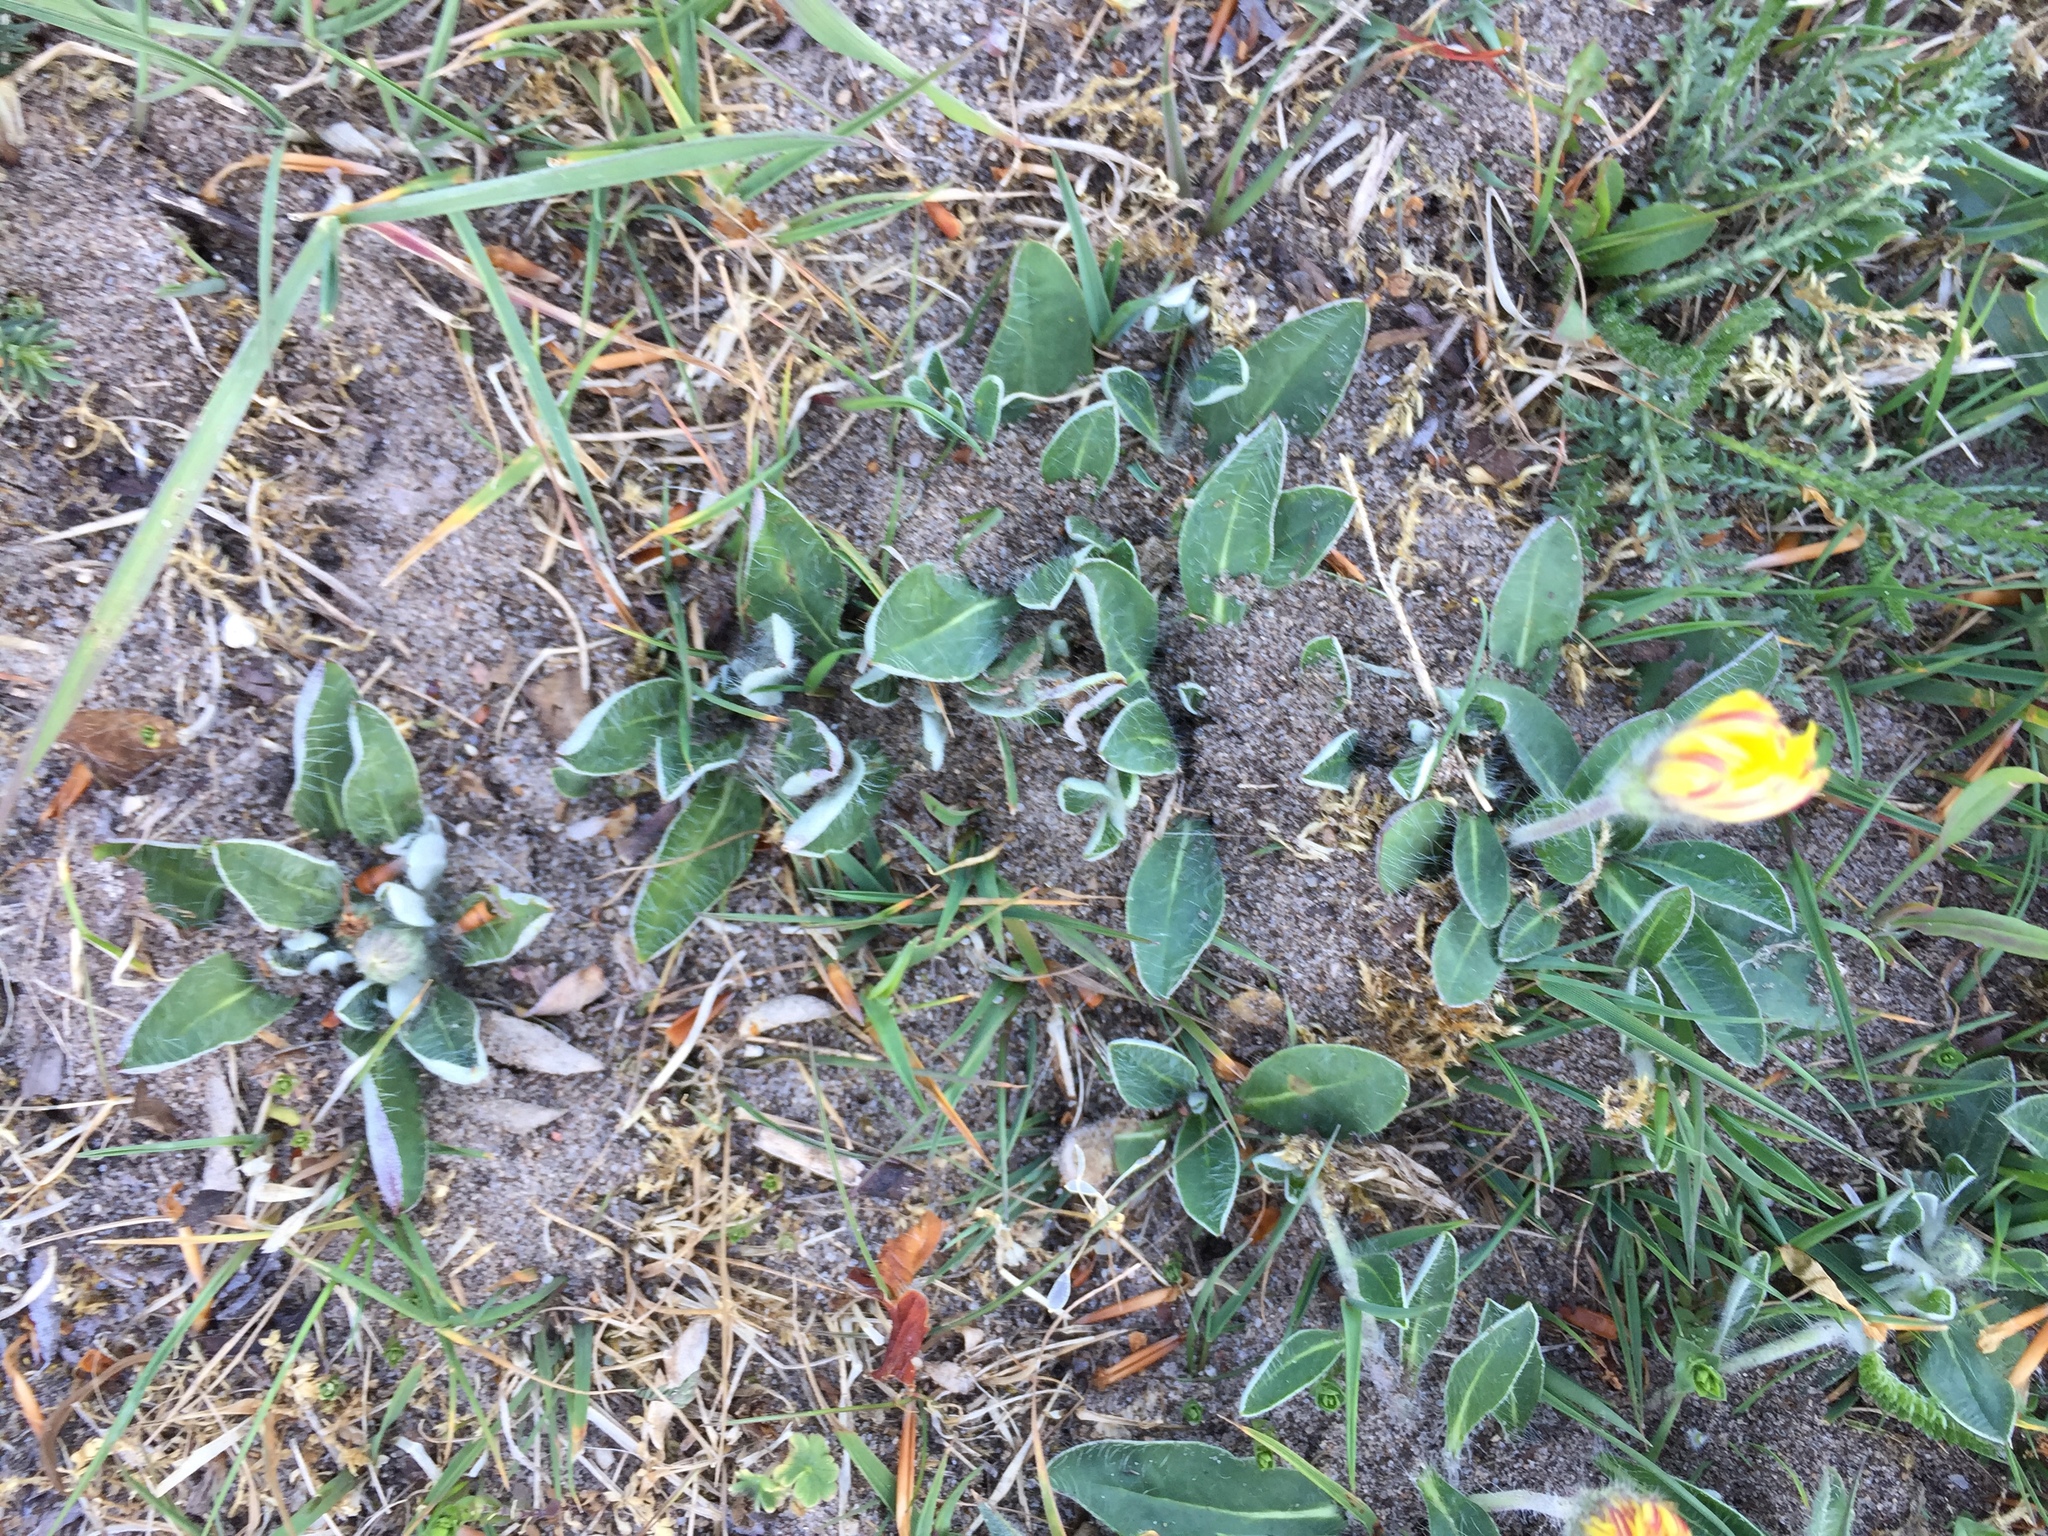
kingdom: Plantae
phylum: Tracheophyta
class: Magnoliopsida
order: Asterales
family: Asteraceae
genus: Pilosella
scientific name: Pilosella officinarum
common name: Mouse-ear hawkweed
